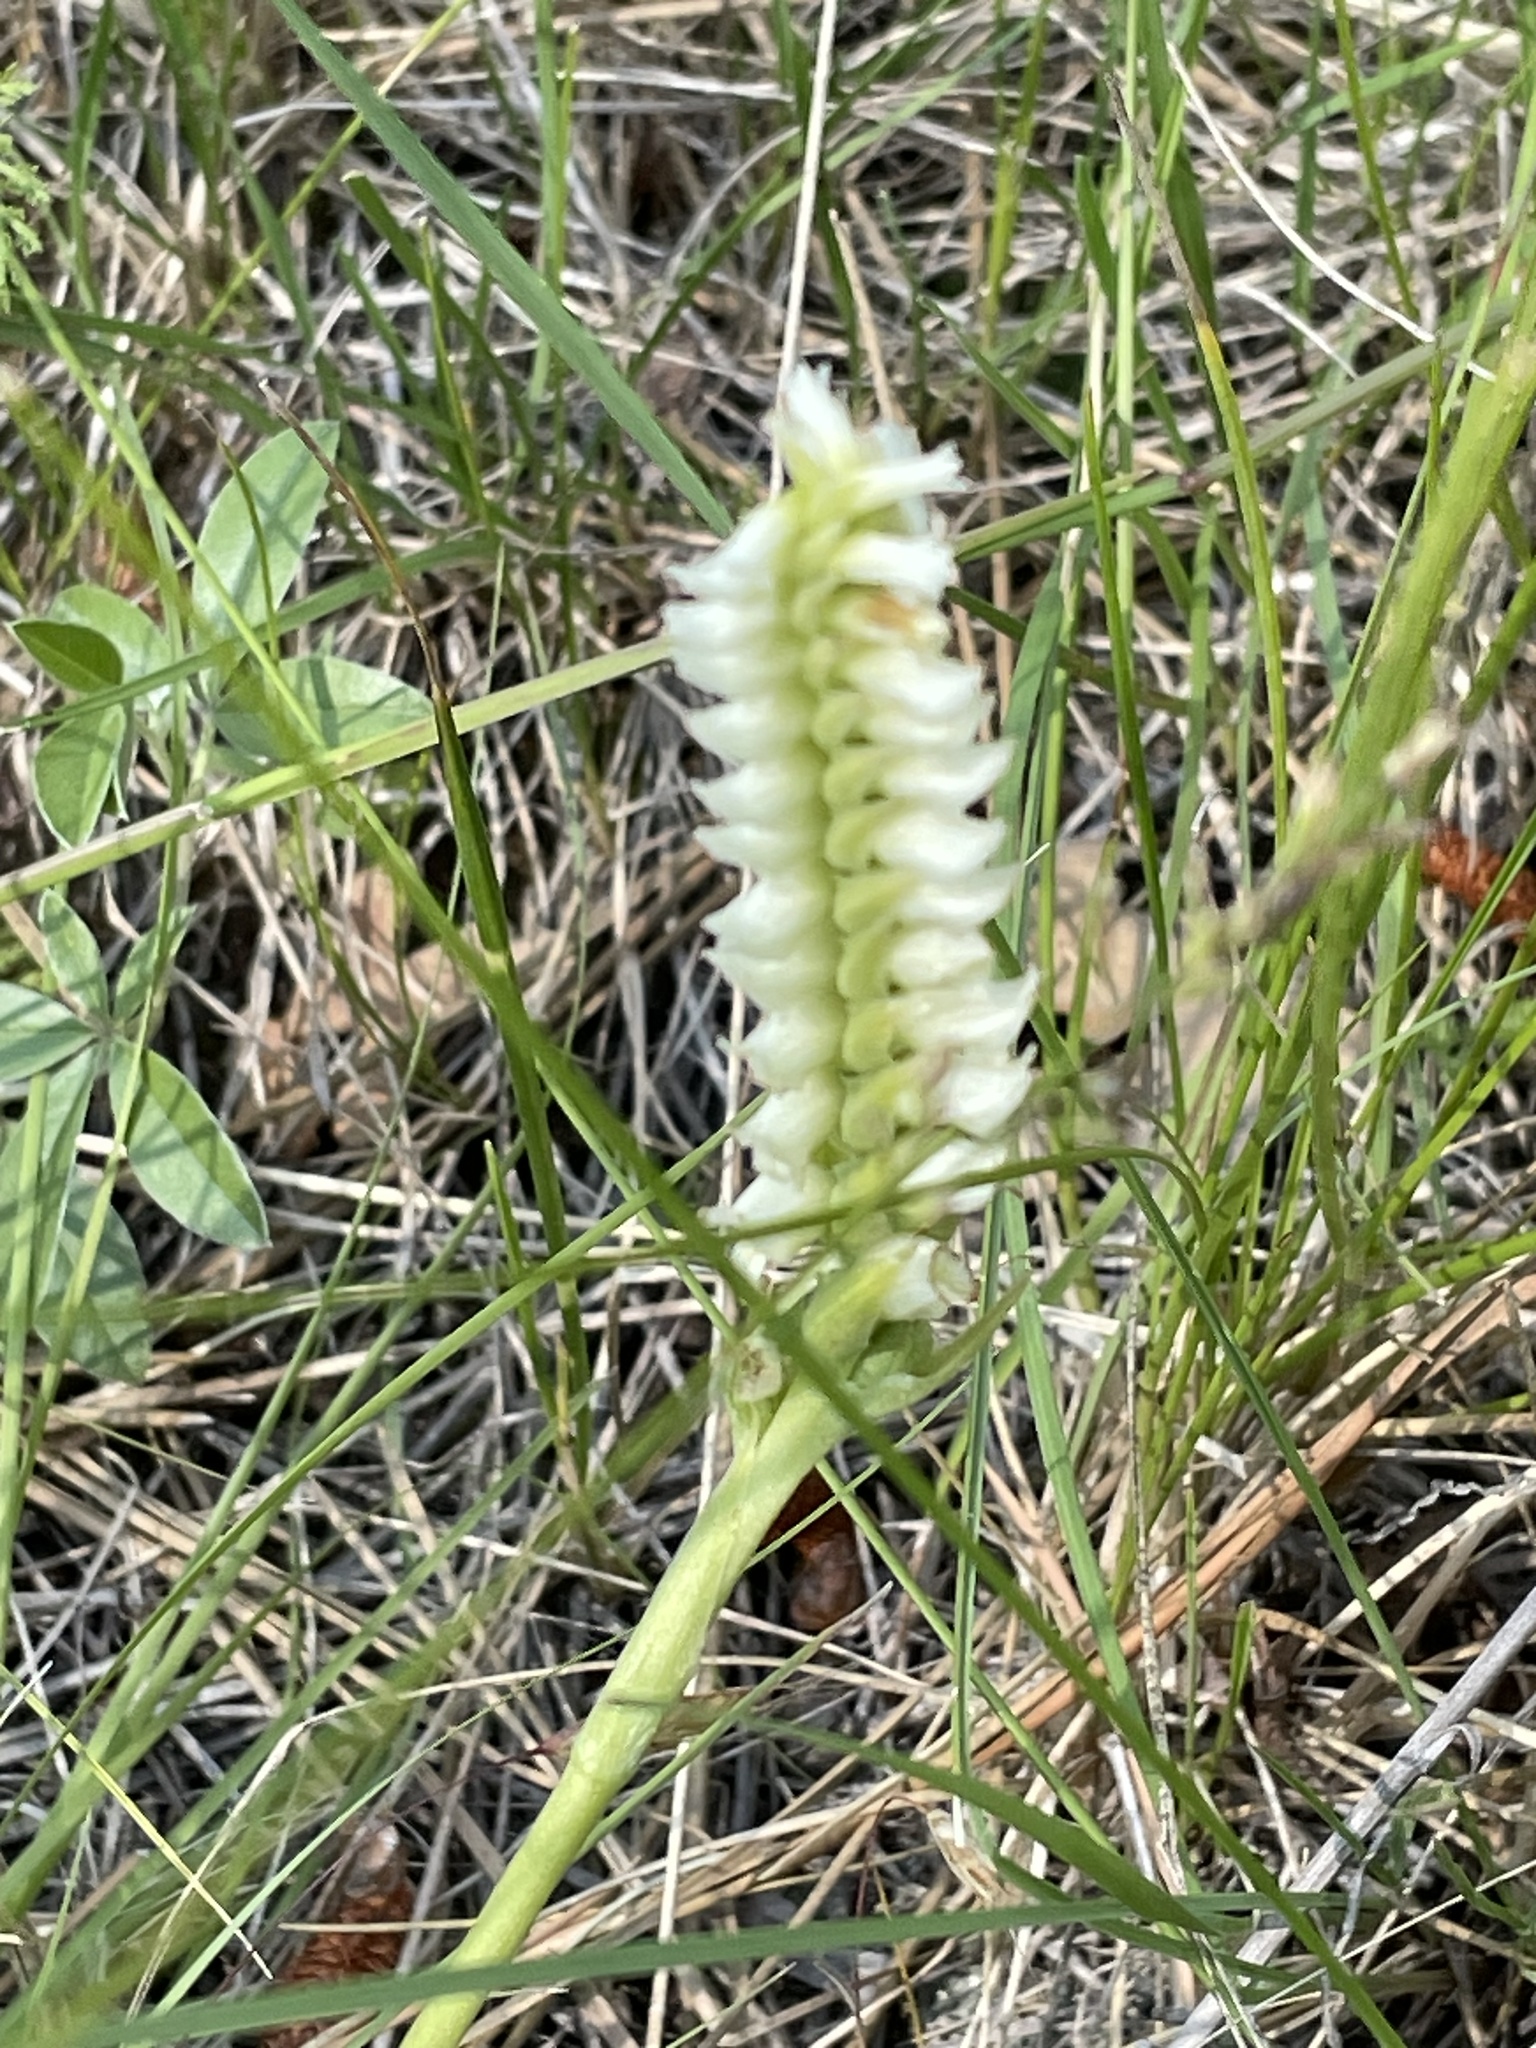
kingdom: Plantae
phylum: Tracheophyta
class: Liliopsida
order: Asparagales
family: Orchidaceae
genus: Spiranthes
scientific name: Spiranthes romanzoffiana
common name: Irish lady's-tresses
